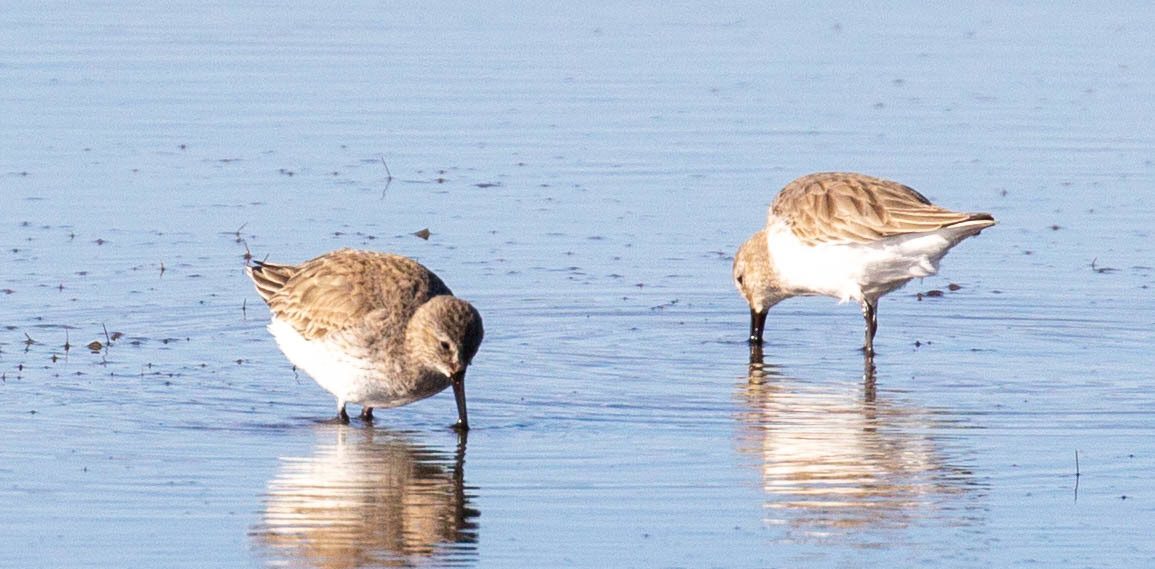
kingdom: Animalia
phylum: Chordata
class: Aves
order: Charadriiformes
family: Scolopacidae
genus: Calidris
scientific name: Calidris alpina
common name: Dunlin
